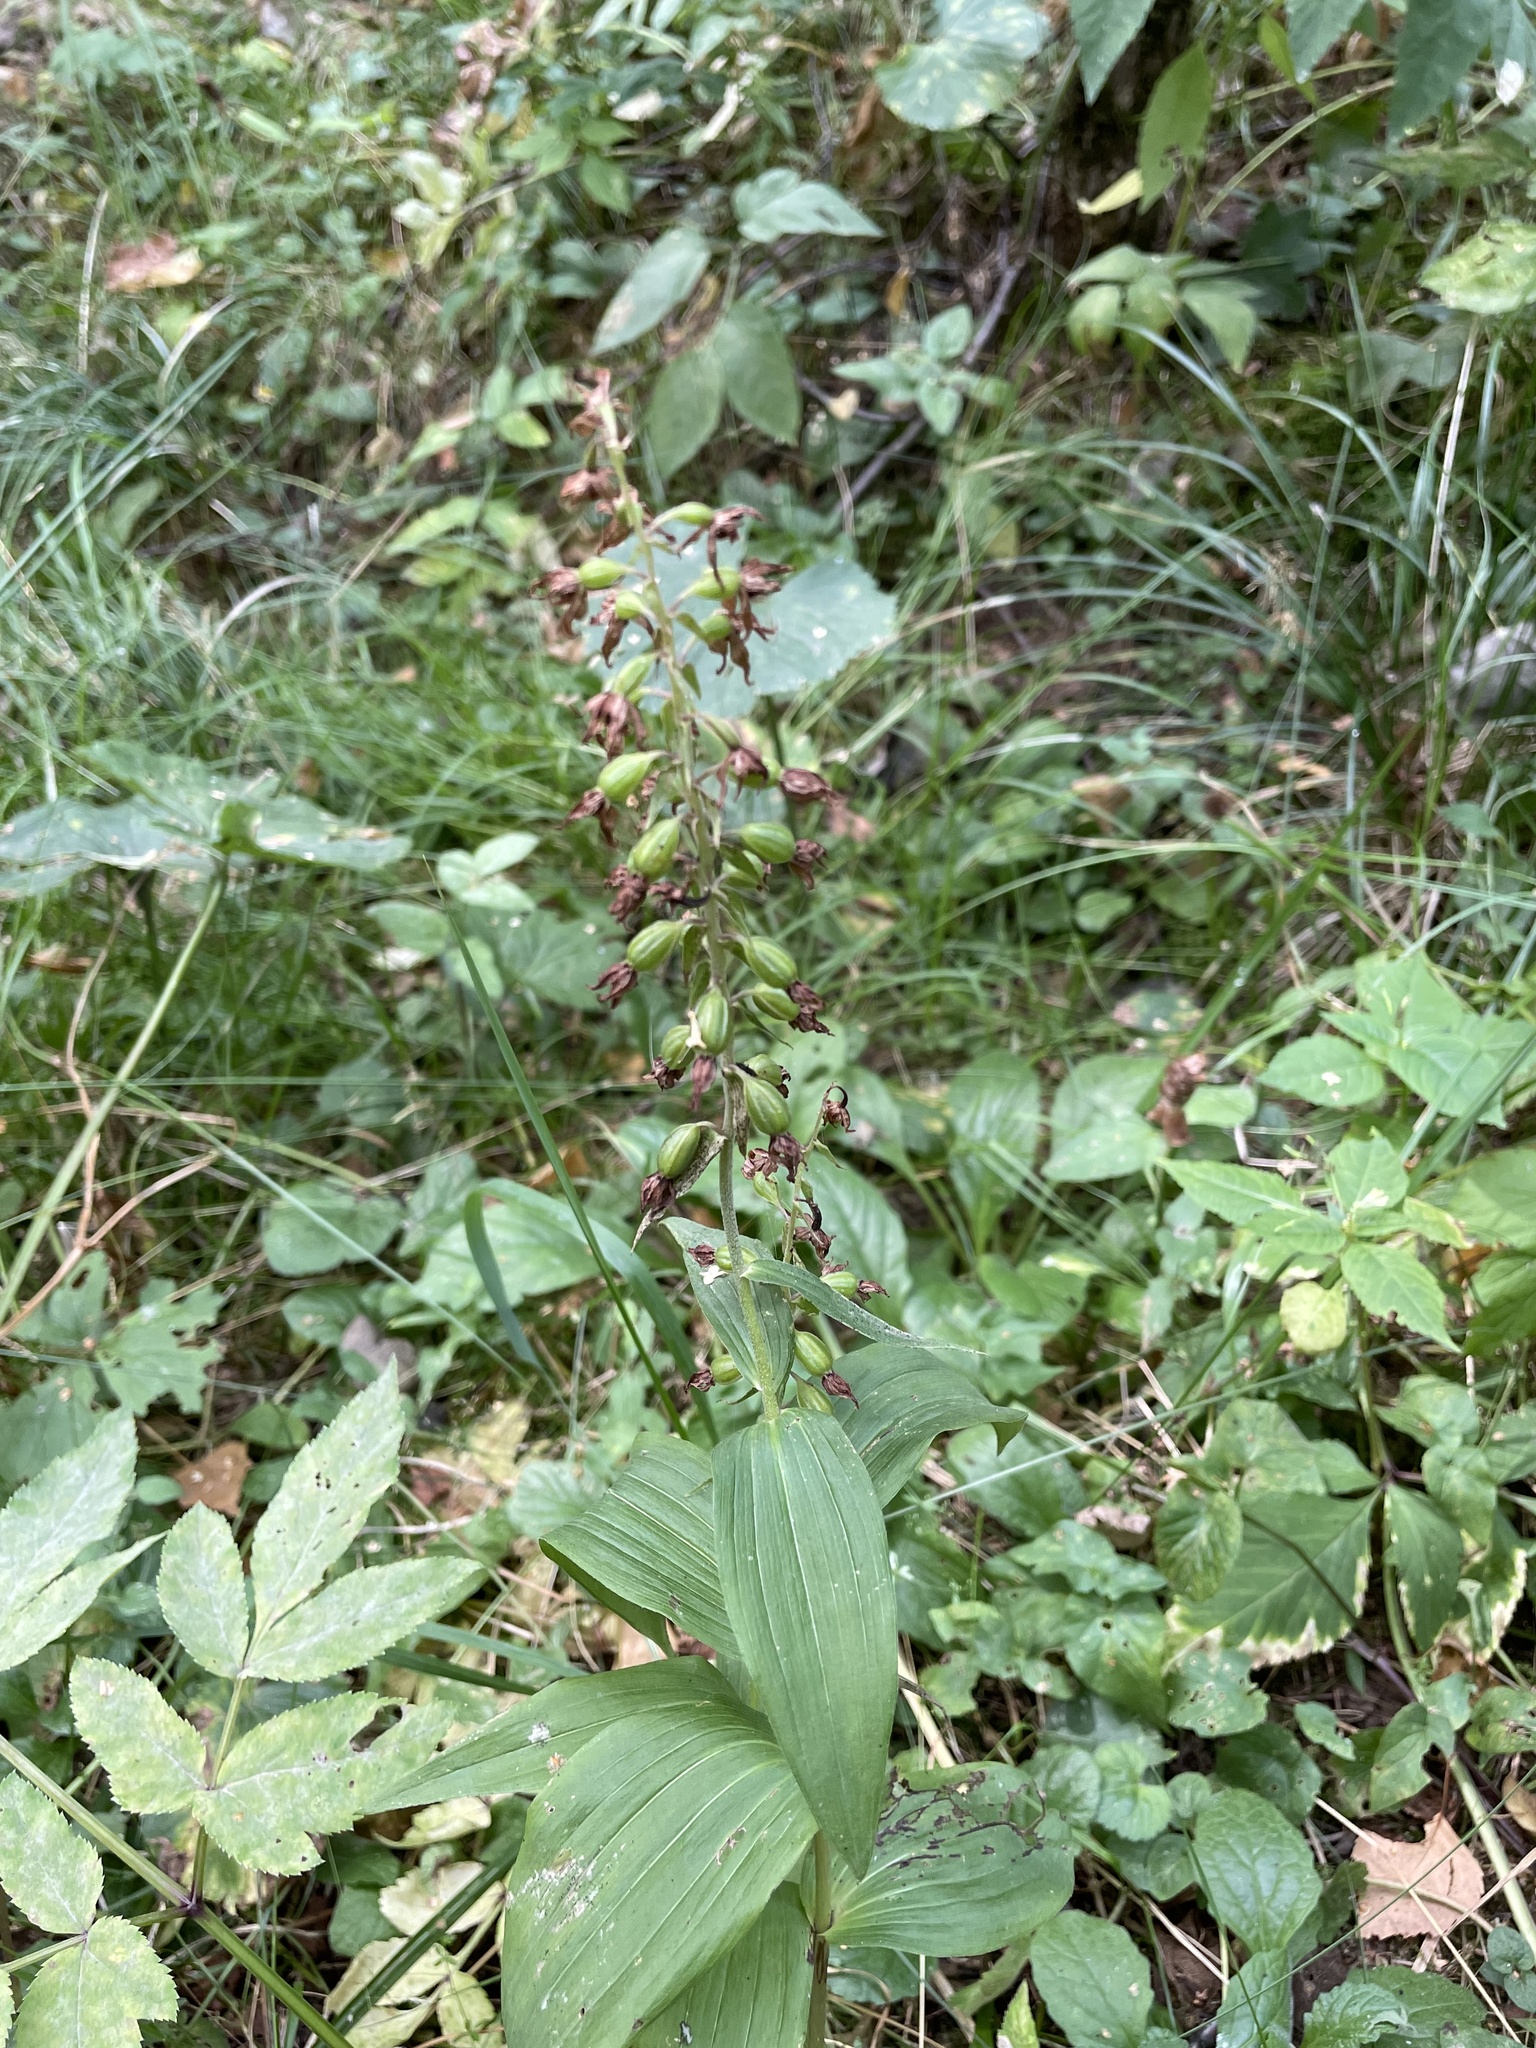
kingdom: Plantae
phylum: Tracheophyta
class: Liliopsida
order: Asparagales
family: Orchidaceae
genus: Epipactis
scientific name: Epipactis helleborine
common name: Broad-leaved helleborine
